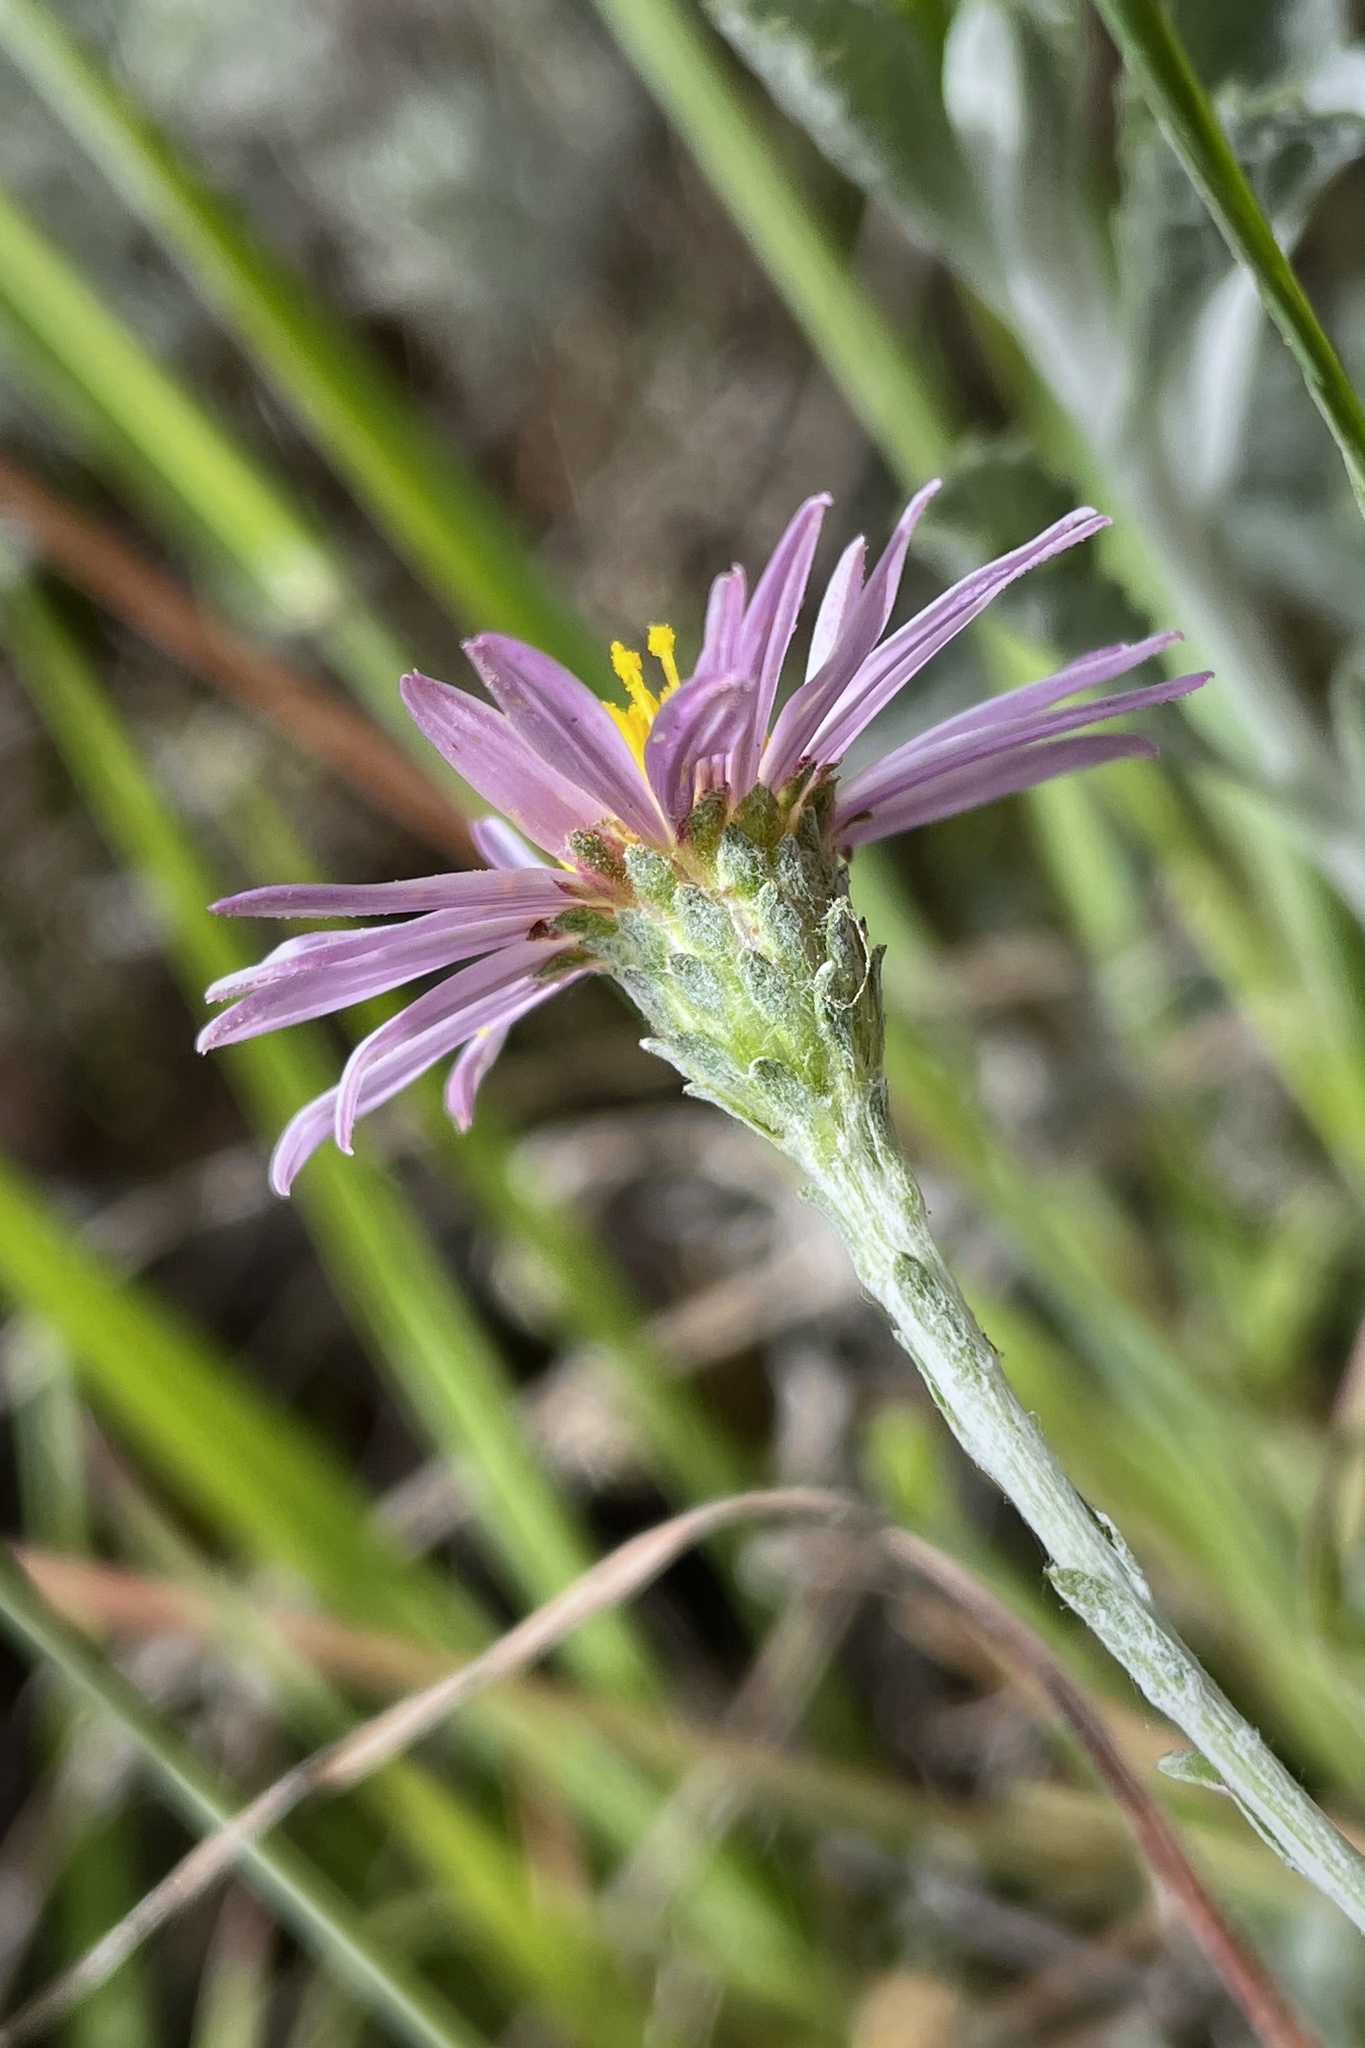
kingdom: Plantae
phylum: Tracheophyta
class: Magnoliopsida
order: Asterales
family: Asteraceae
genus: Corethrogyne
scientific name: Corethrogyne filaginifolia
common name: Sand-aster
